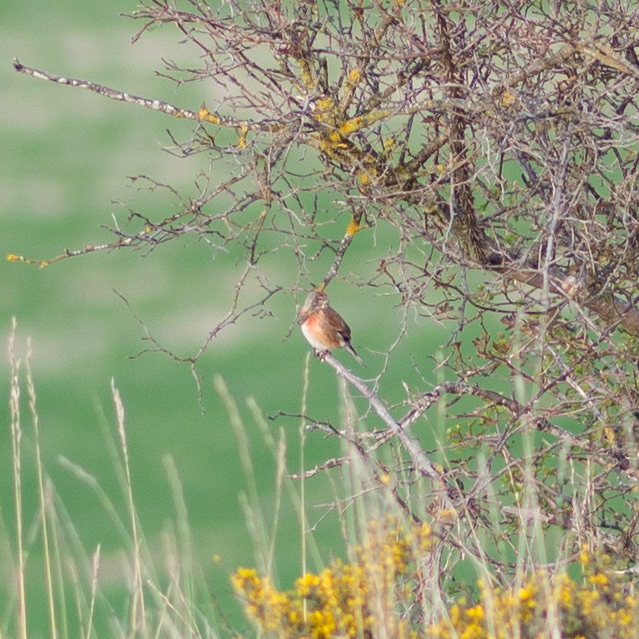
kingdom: Animalia
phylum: Chordata
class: Aves
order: Passeriformes
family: Fringillidae
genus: Linaria
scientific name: Linaria cannabina
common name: Common linnet
